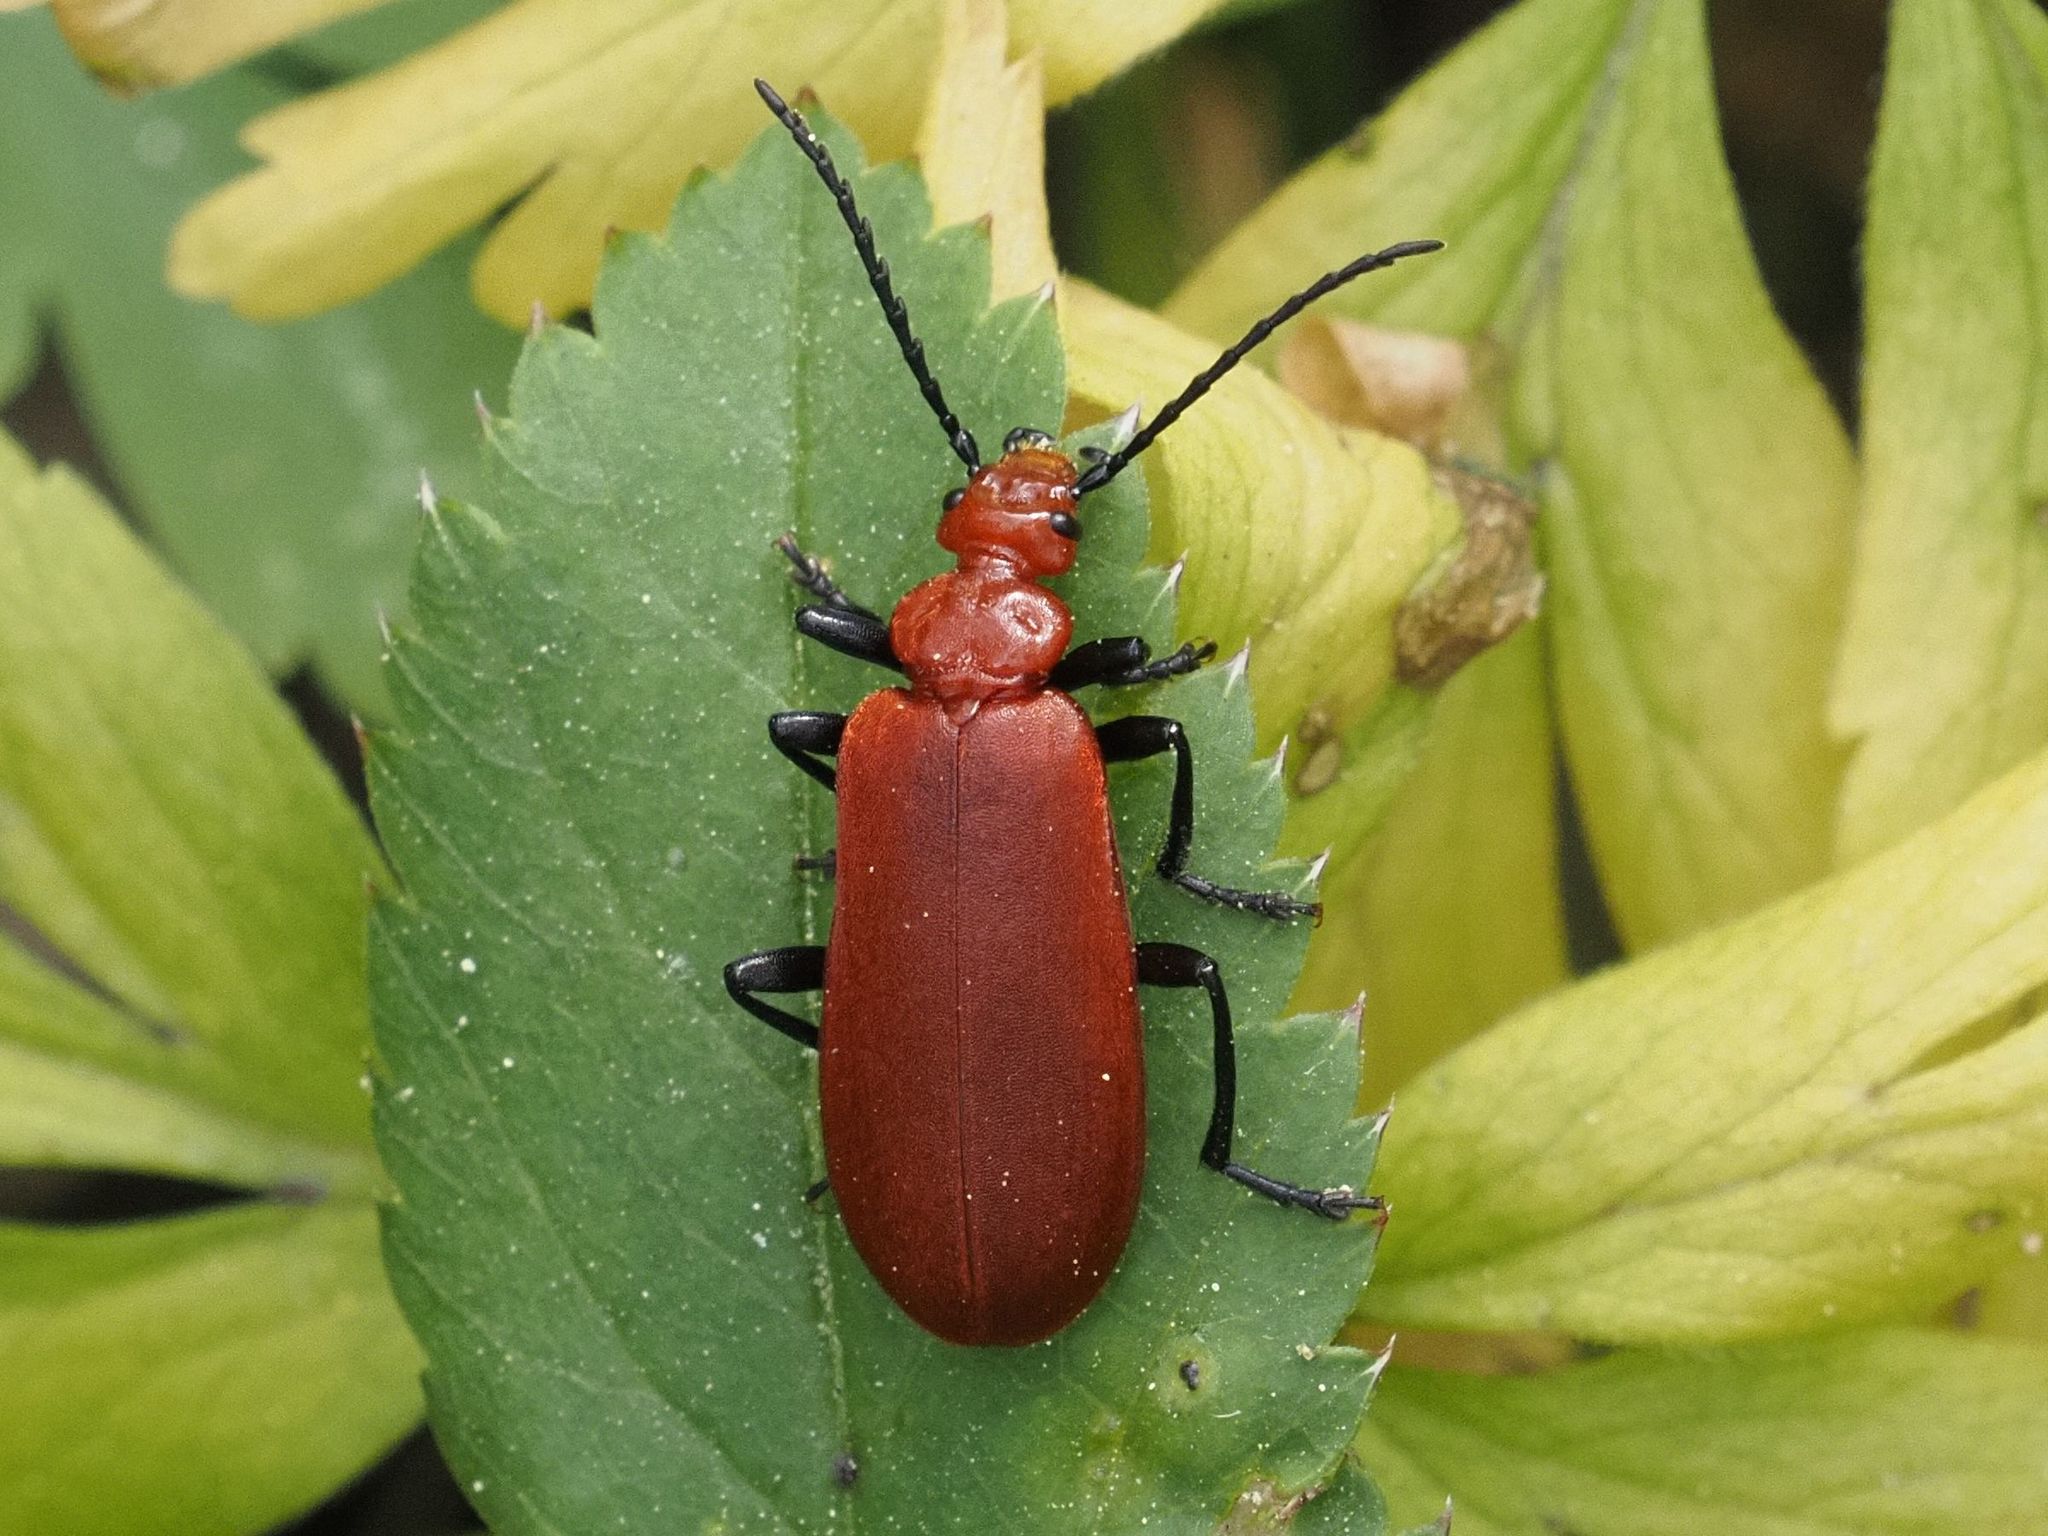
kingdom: Animalia
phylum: Arthropoda
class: Insecta
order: Coleoptera
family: Pyrochroidae
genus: Pyrochroa
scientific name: Pyrochroa serraticornis
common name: Red-headed cardinal beetle
